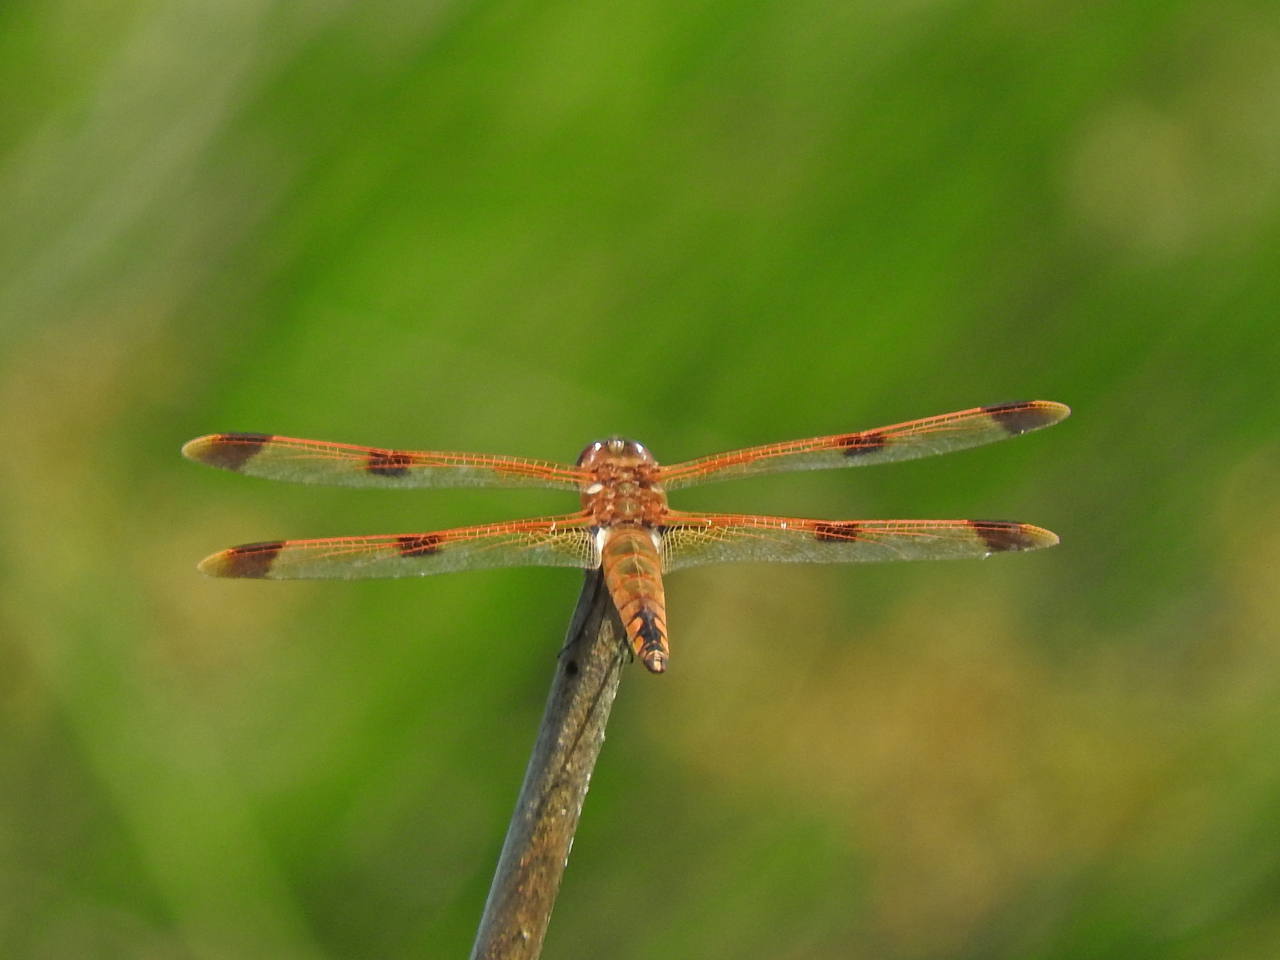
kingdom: Animalia
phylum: Arthropoda
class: Insecta
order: Odonata
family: Libellulidae
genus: Libellula
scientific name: Libellula semifasciata
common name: Painted skimmer
